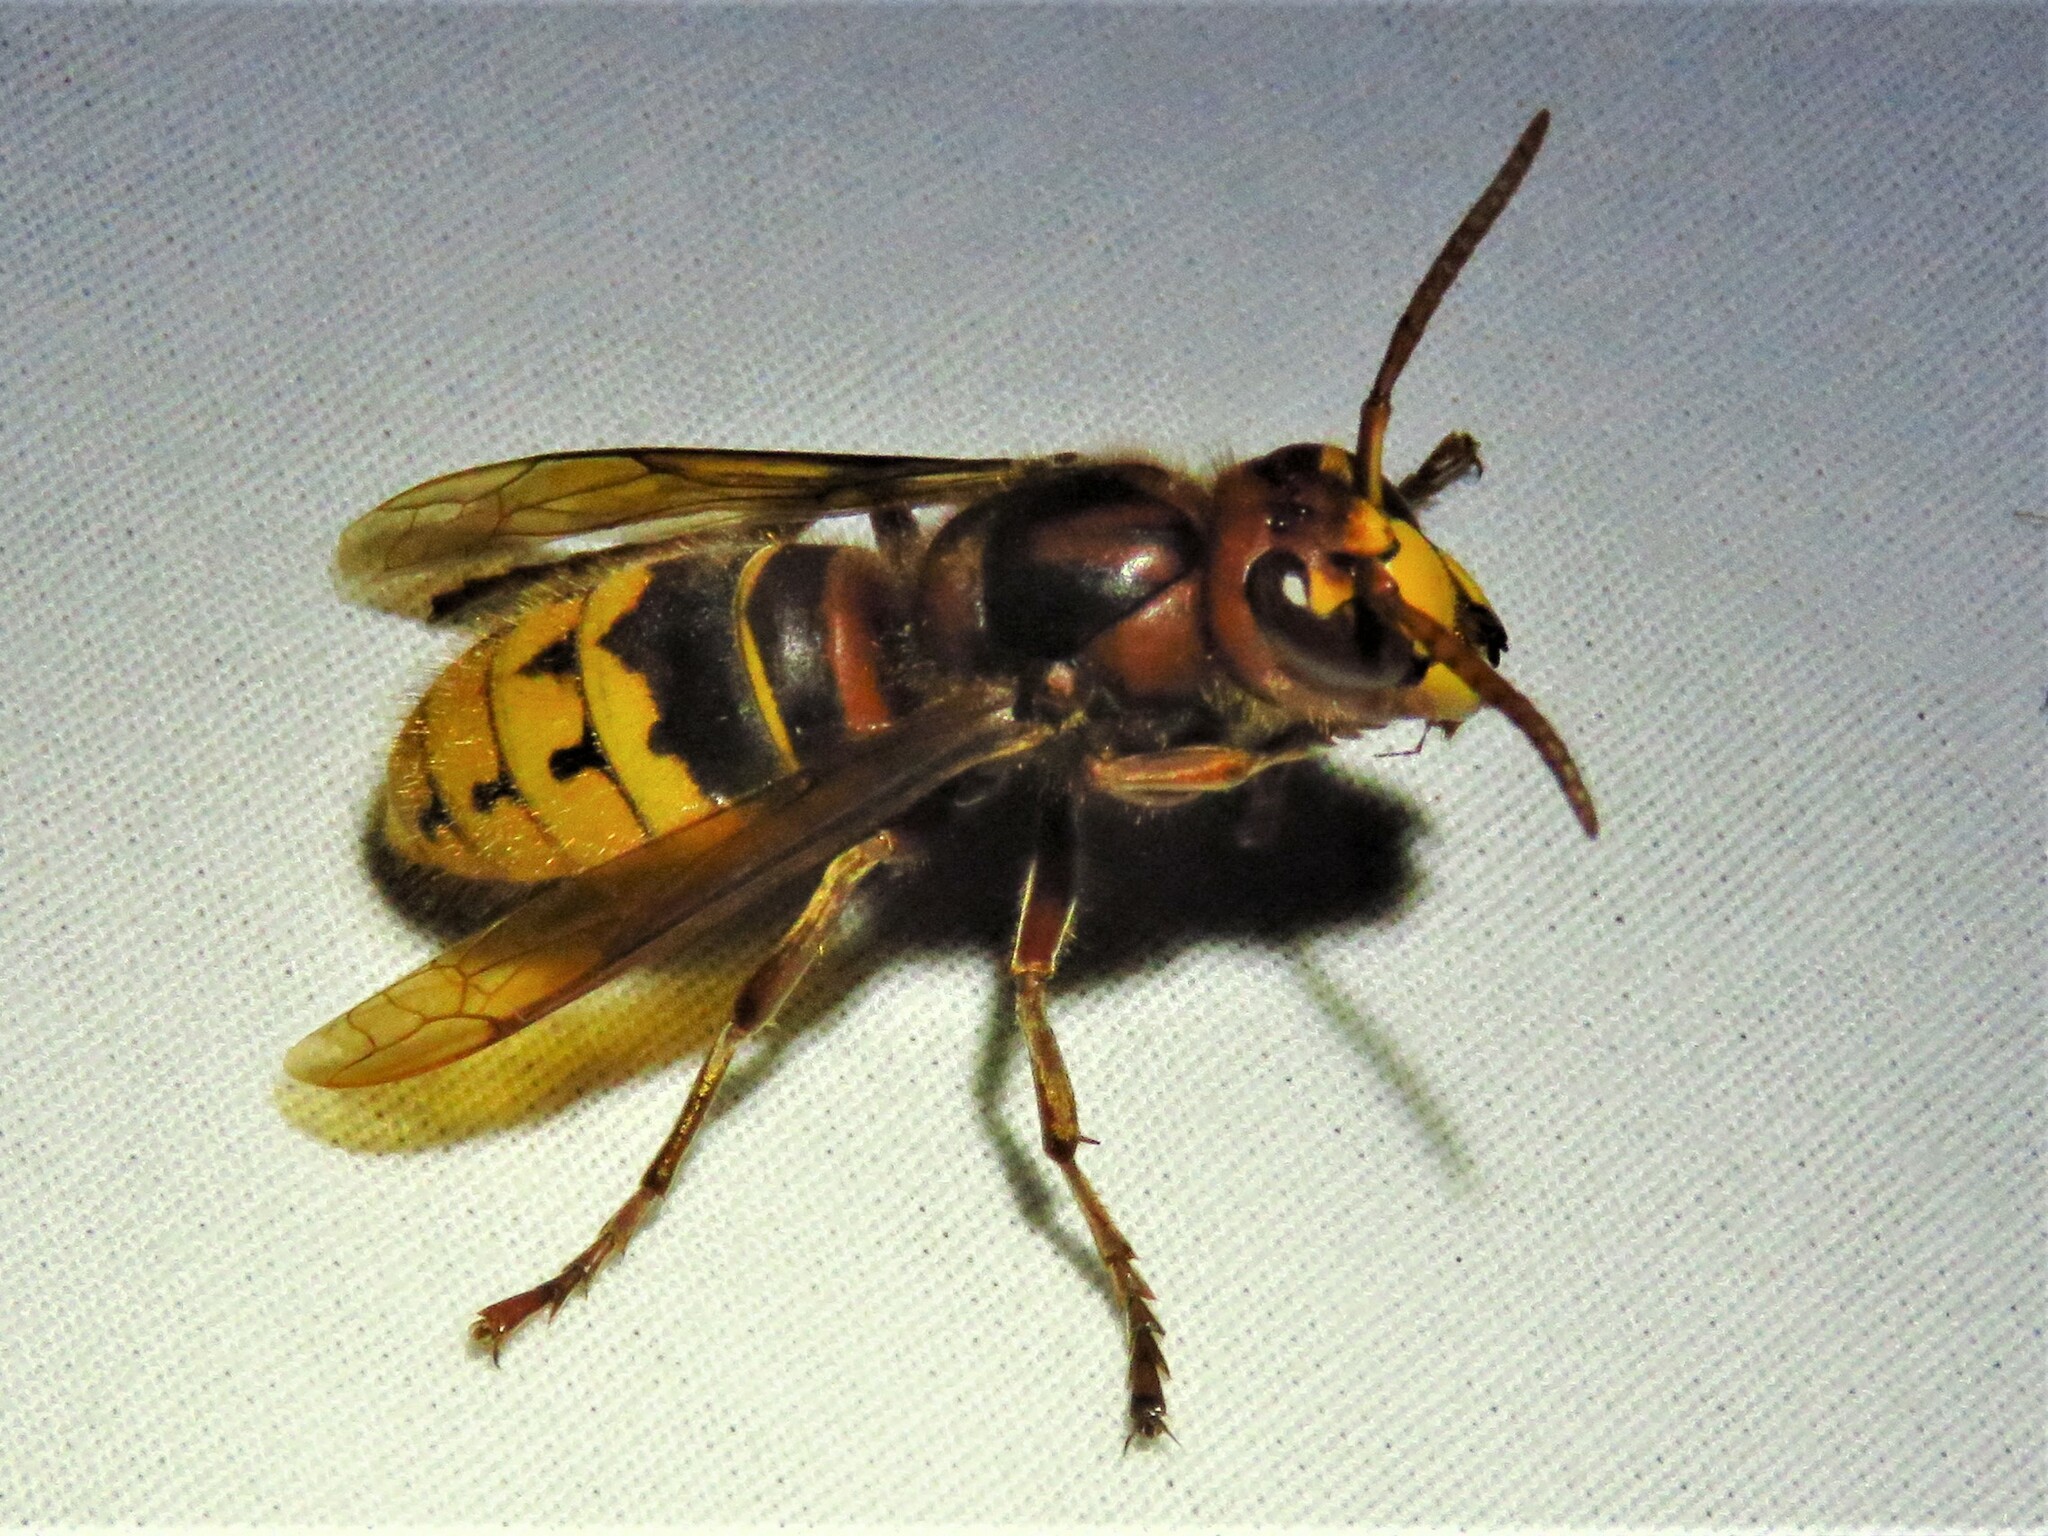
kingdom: Animalia
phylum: Arthropoda
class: Insecta
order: Hymenoptera
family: Vespidae
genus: Vespa
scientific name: Vespa crabro
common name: Hornet
